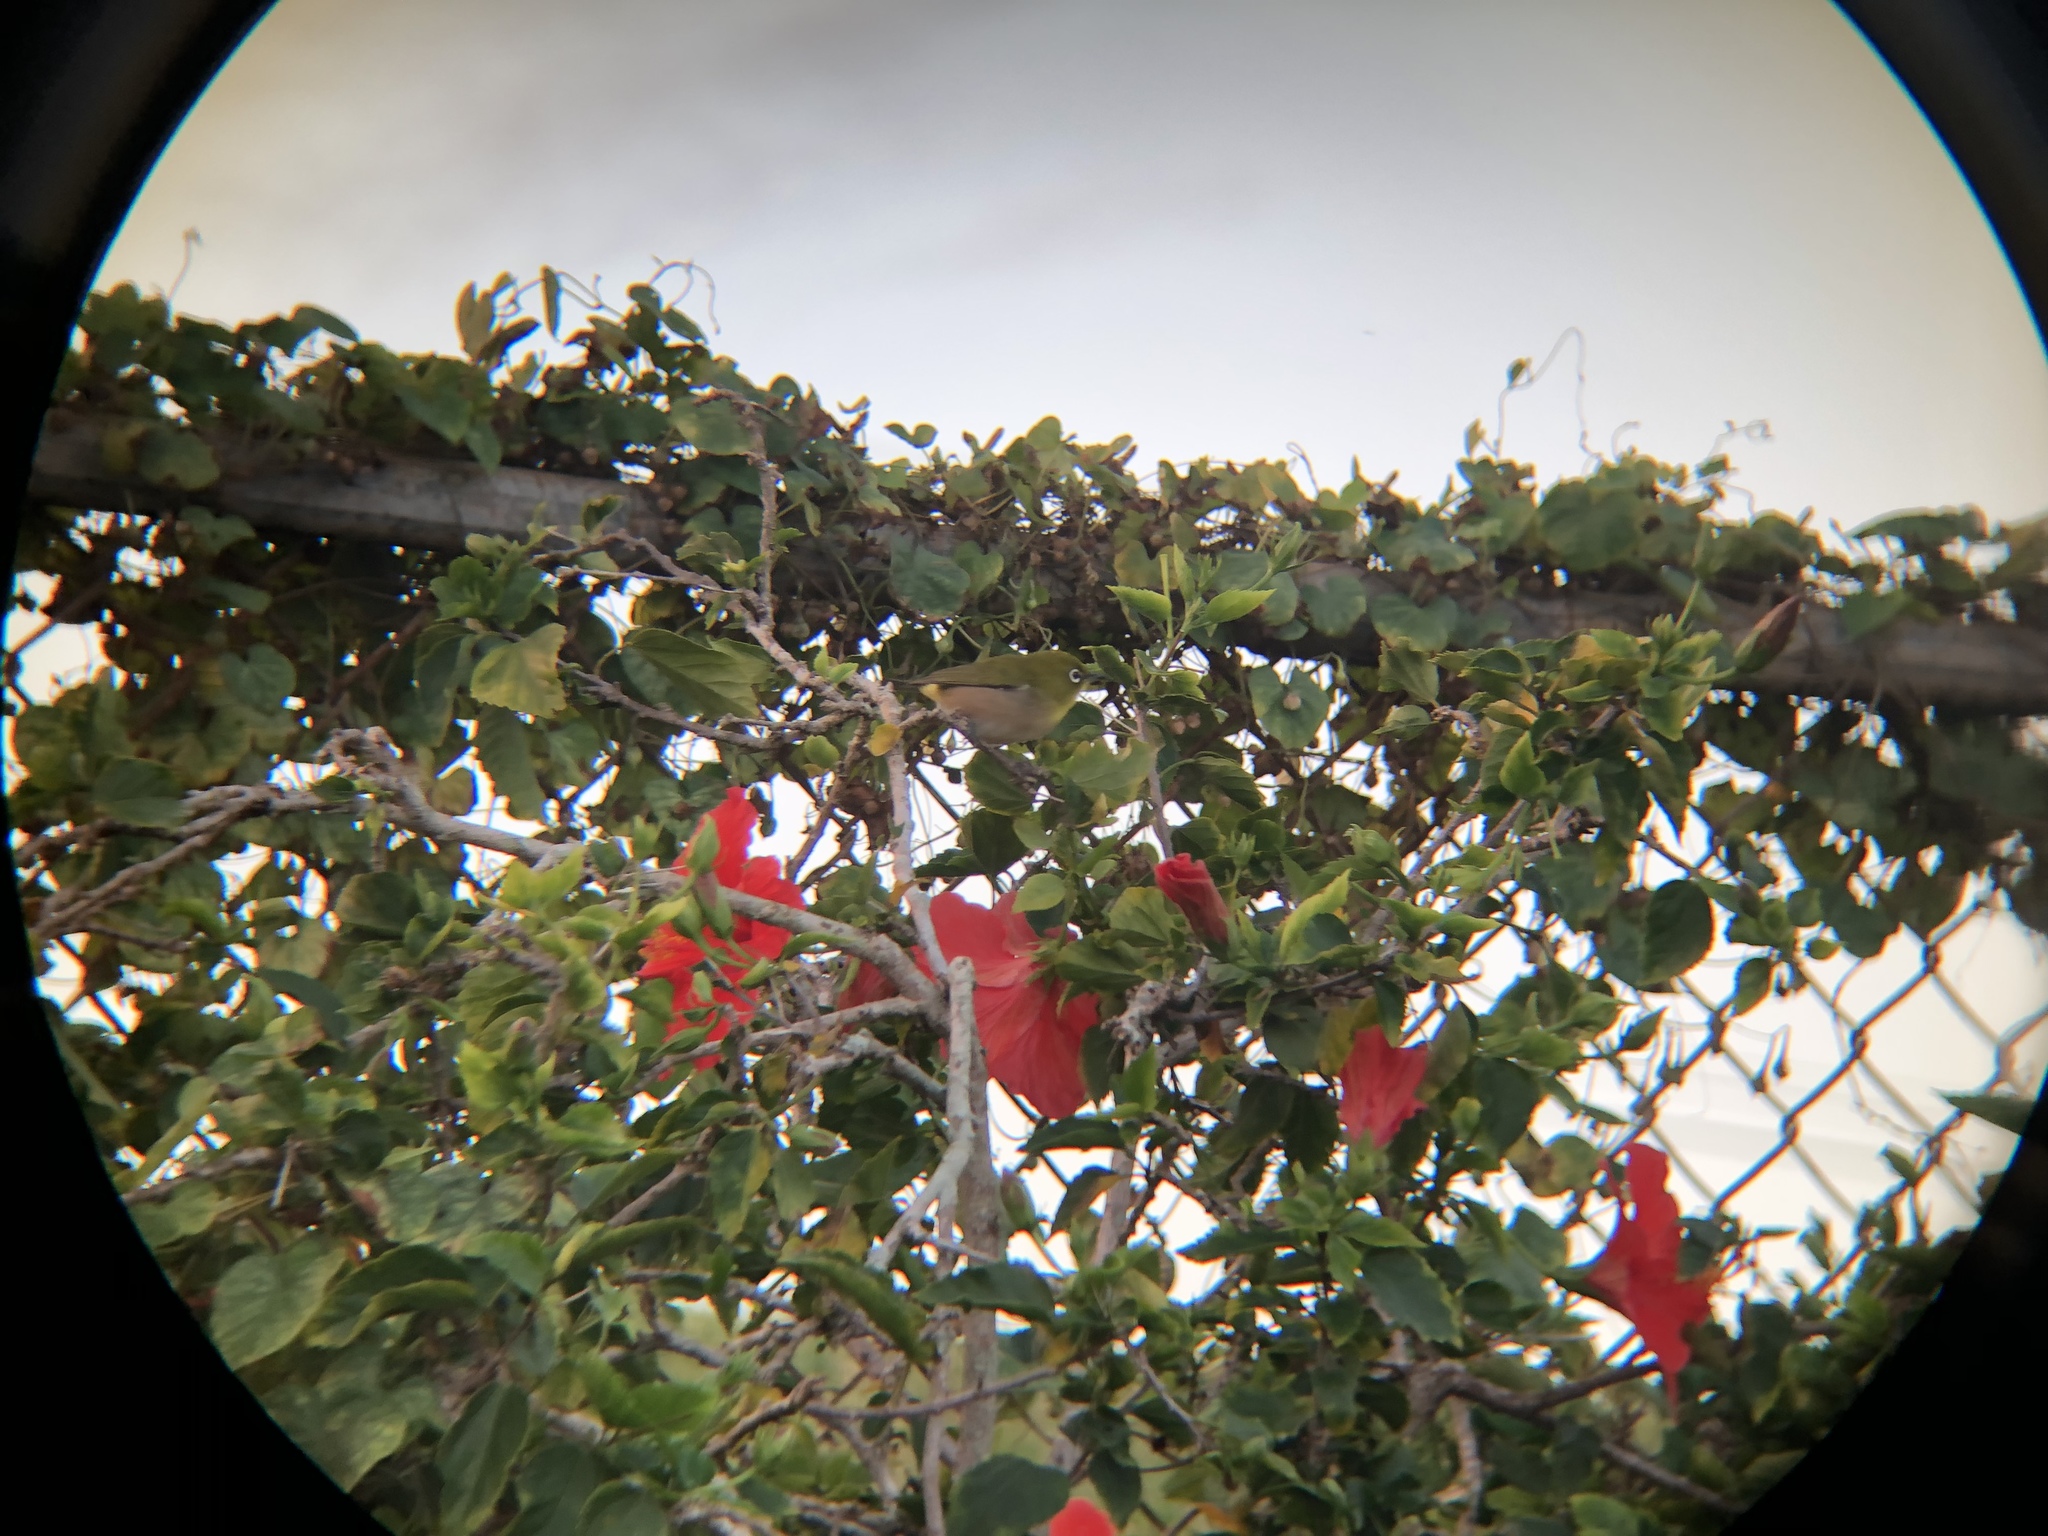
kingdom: Animalia
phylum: Chordata
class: Aves
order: Passeriformes
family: Zosteropidae
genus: Zosterops
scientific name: Zosterops japonicus
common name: Japanese white-eye
